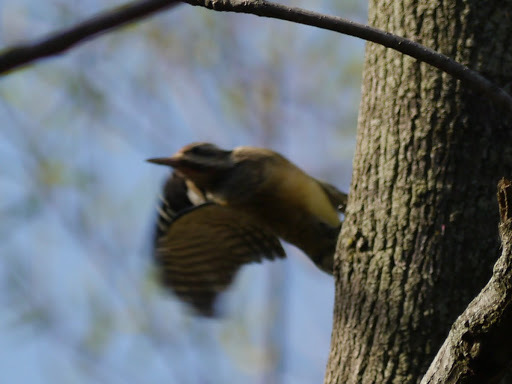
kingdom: Animalia
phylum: Chordata
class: Aves
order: Piciformes
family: Picidae
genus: Sphyrapicus
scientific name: Sphyrapicus varius
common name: Yellow-bellied sapsucker
